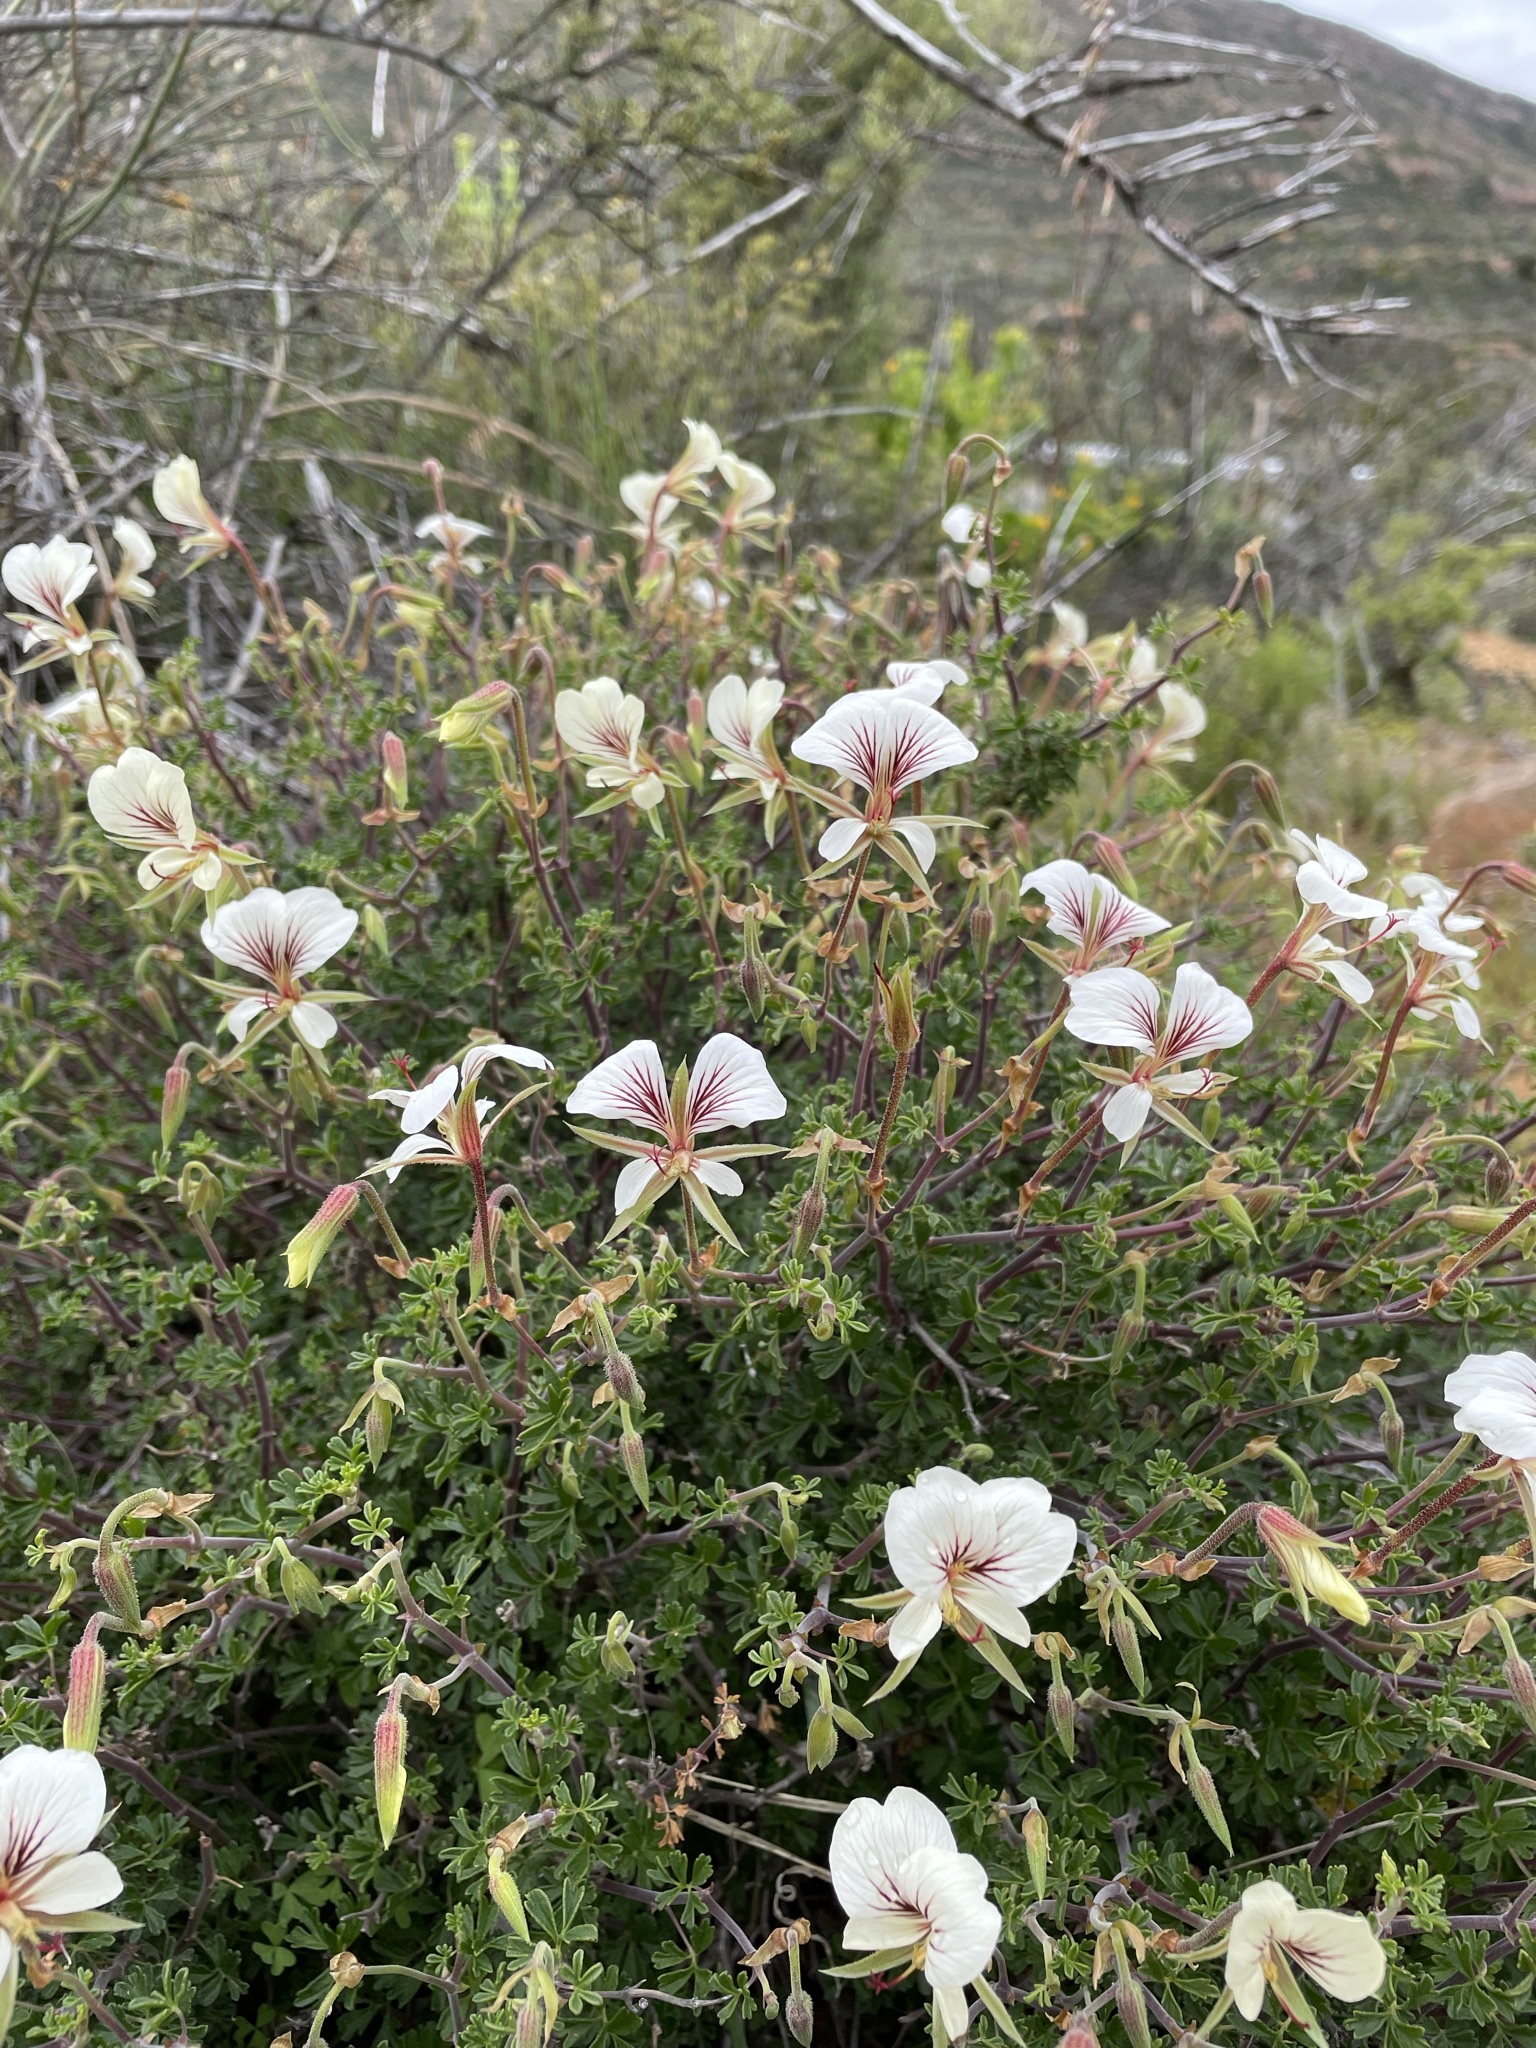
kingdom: Plantae
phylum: Tracheophyta
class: Magnoliopsida
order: Geraniales
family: Geraniaceae
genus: Pelargonium
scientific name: Pelargonium praemorsum
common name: Quinate-leaf pelargonium
